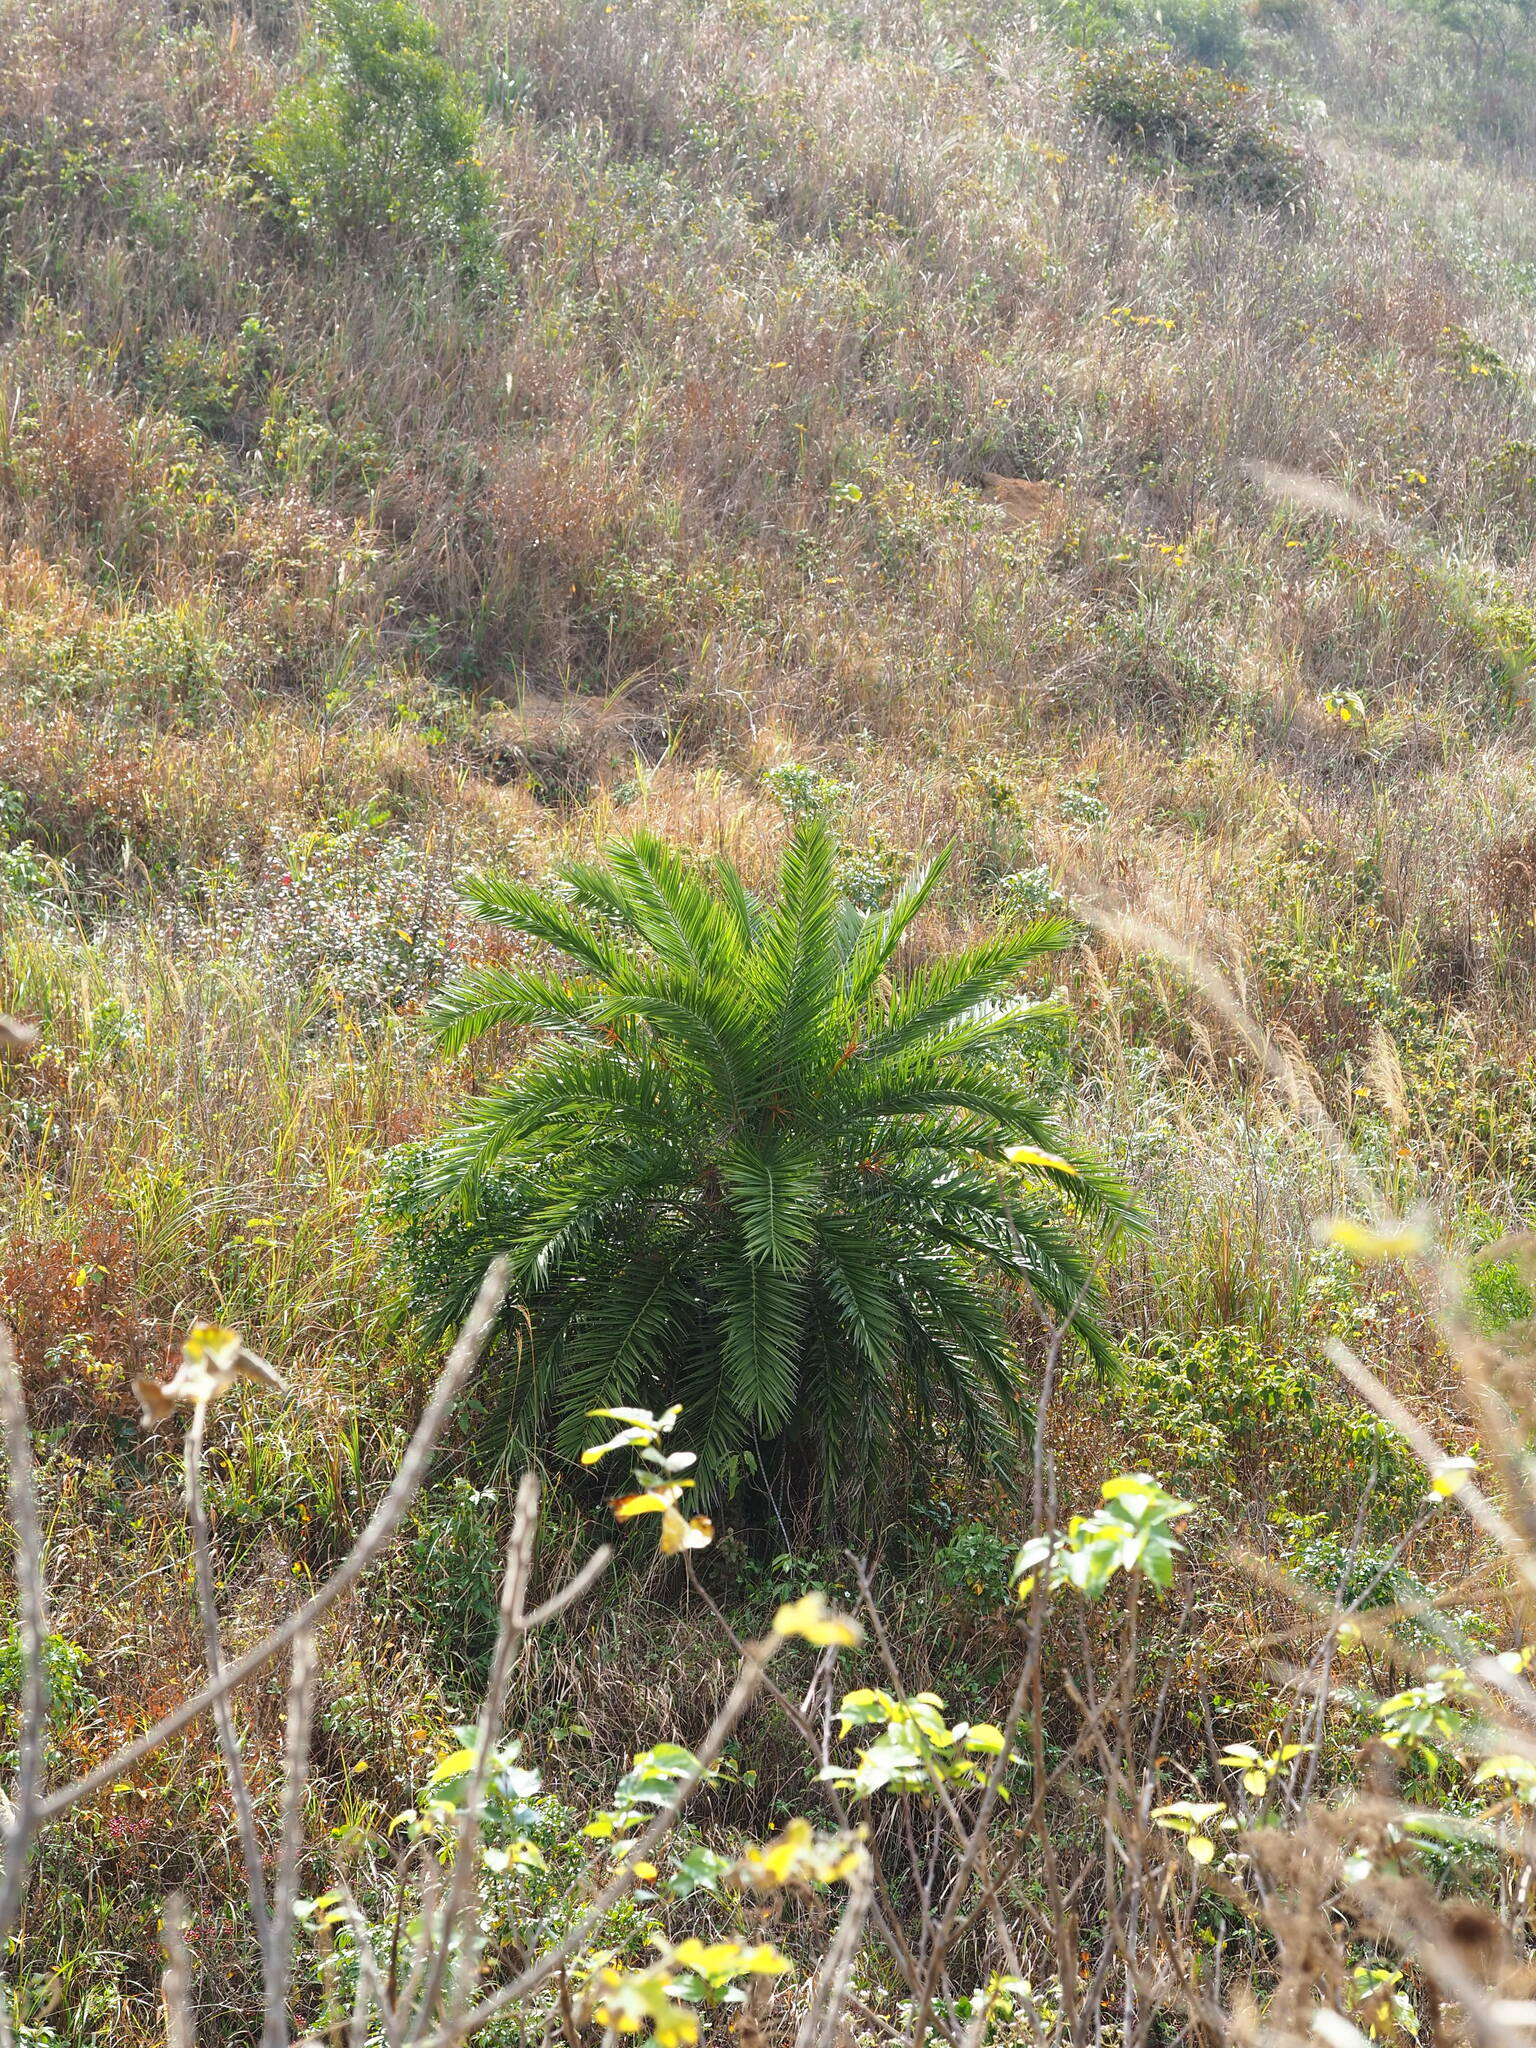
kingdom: Plantae
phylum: Tracheophyta
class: Liliopsida
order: Arecales
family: Arecaceae
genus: Phoenix
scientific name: Phoenix loureiroi
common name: Loureiro's palm
